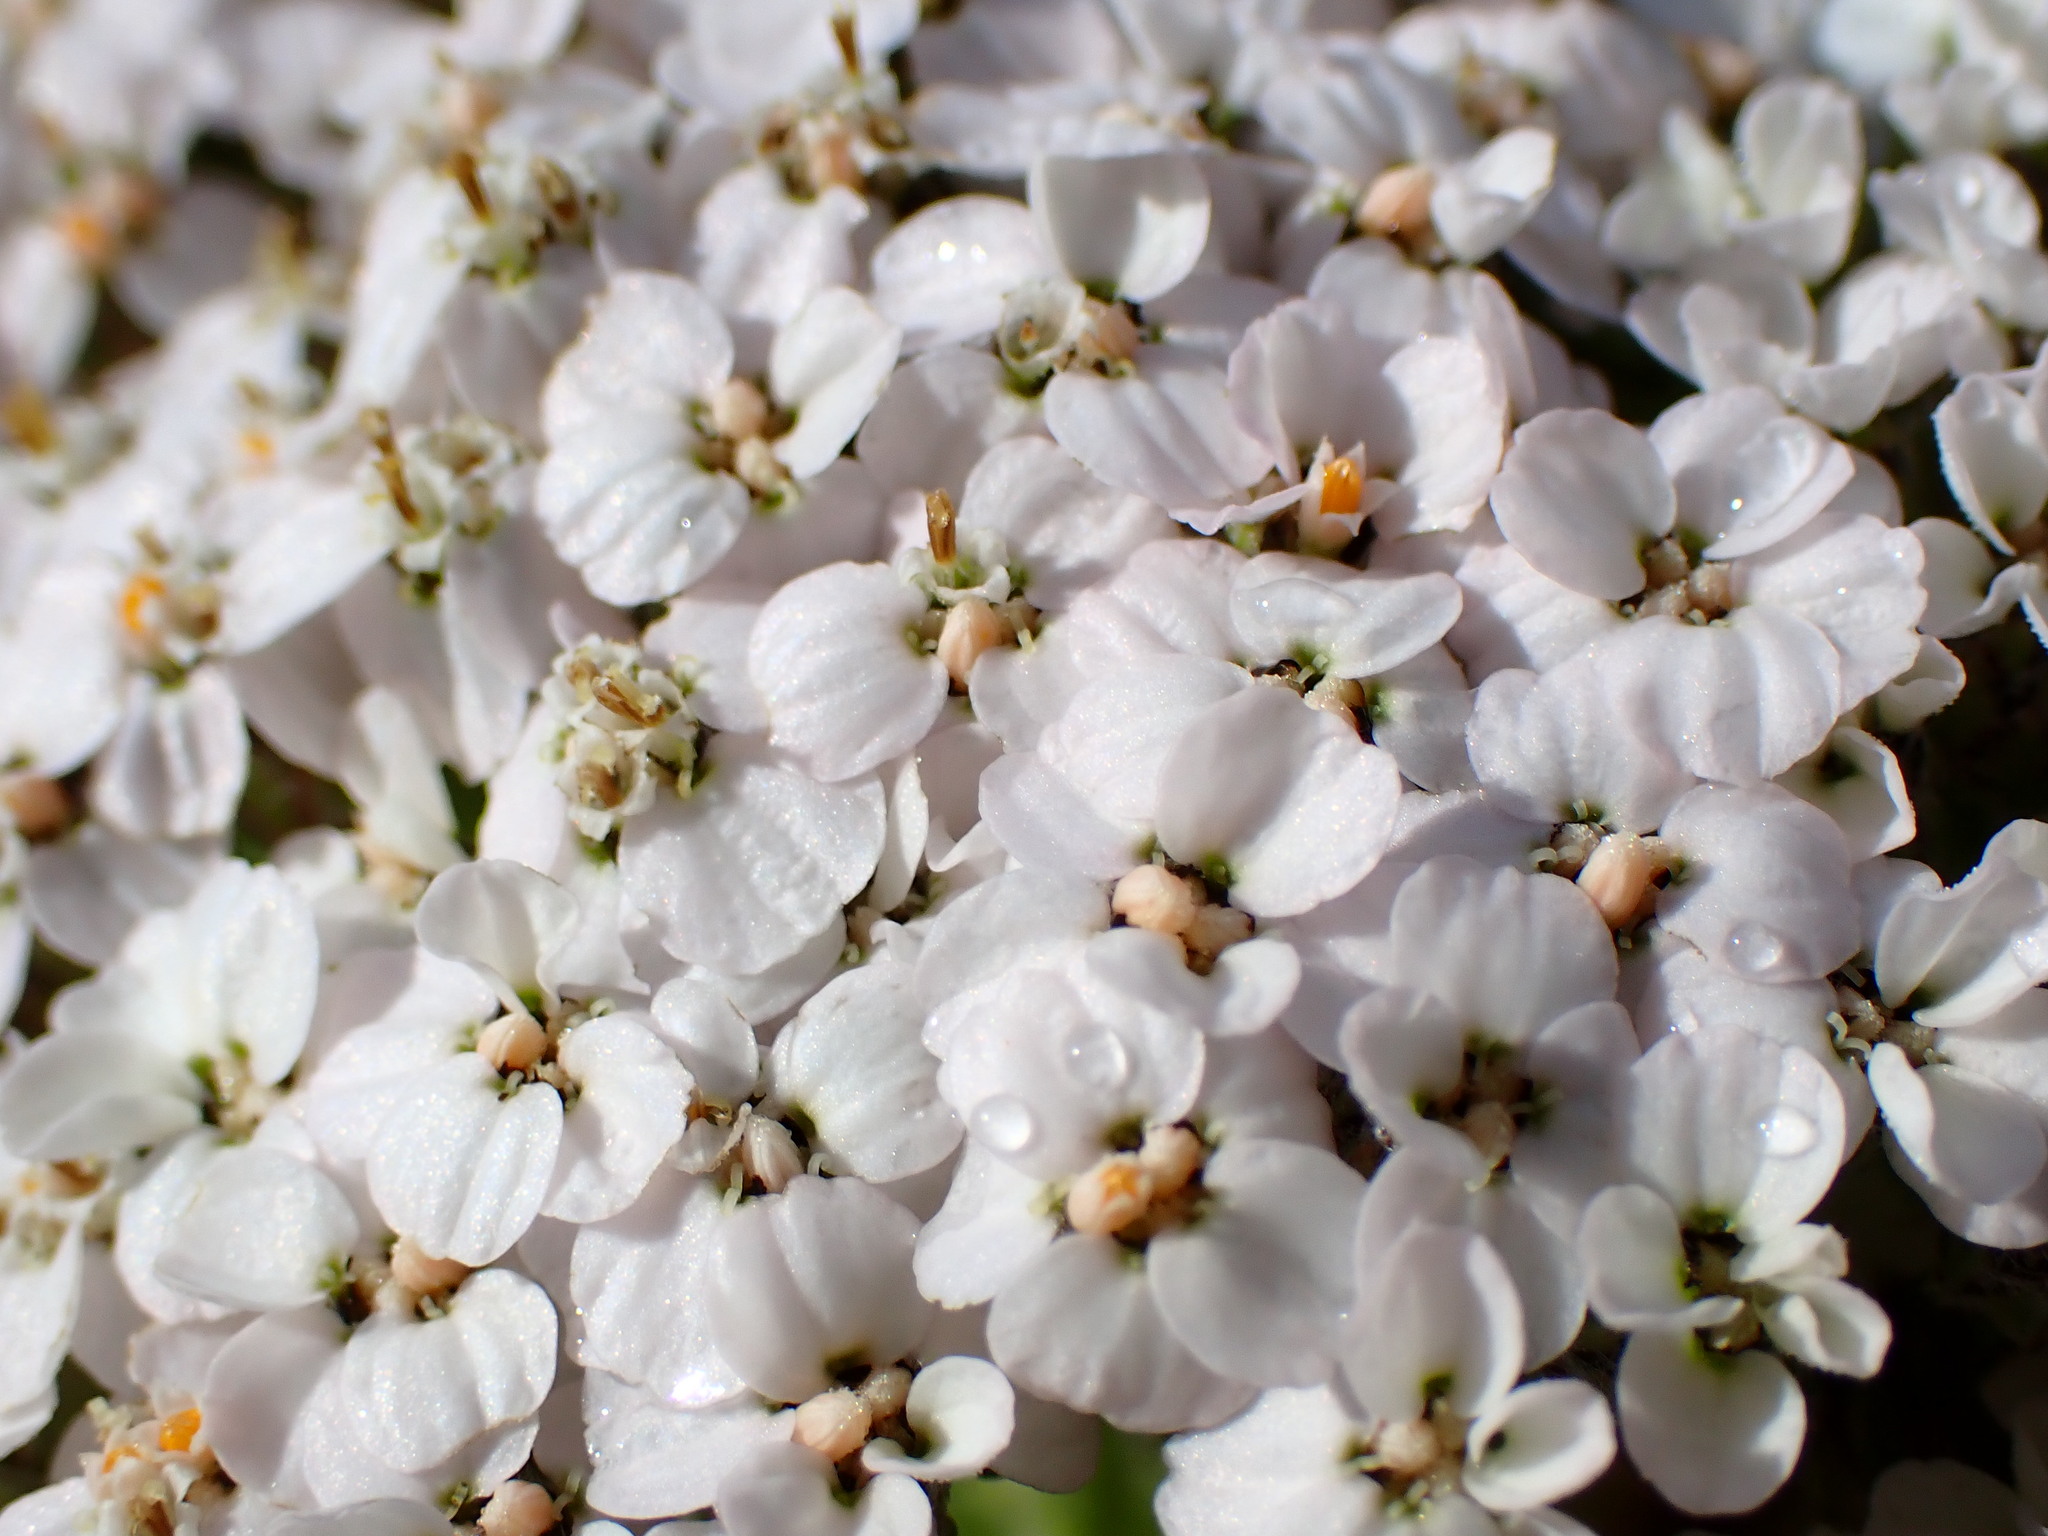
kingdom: Plantae
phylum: Tracheophyta
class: Magnoliopsida
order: Asterales
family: Asteraceae
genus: Achillea
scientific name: Achillea millefolium
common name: Yarrow
